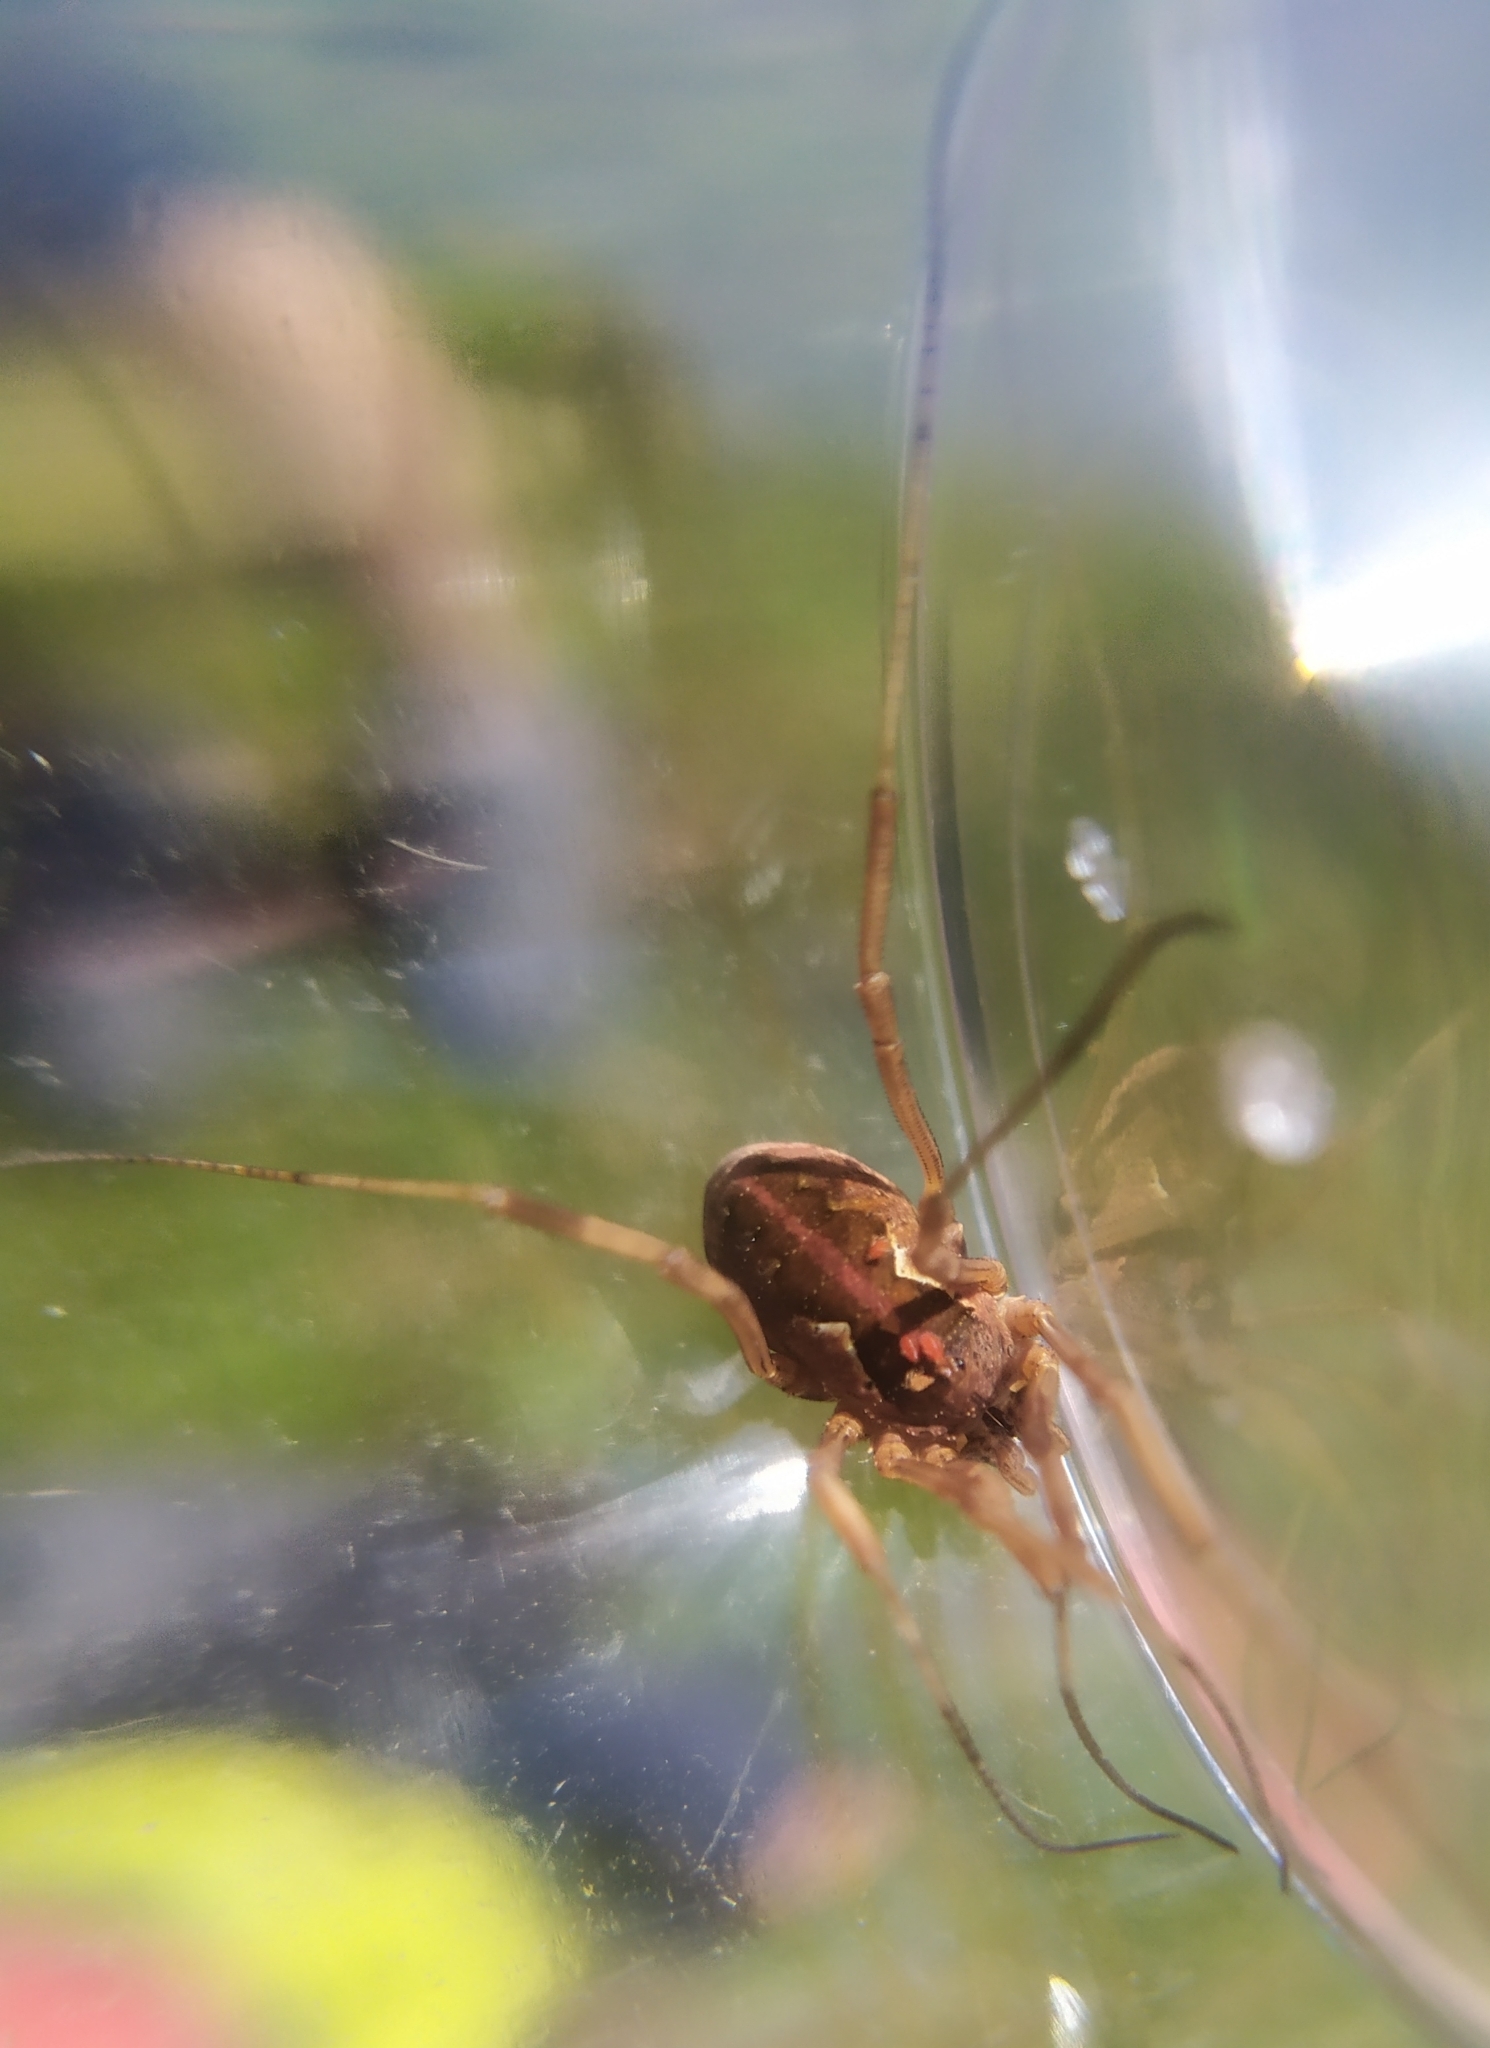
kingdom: Animalia
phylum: Arthropoda
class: Arachnida
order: Opiliones
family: Phalangiidae
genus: Mitopus
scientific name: Mitopus morio
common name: Saddleback harvestman
